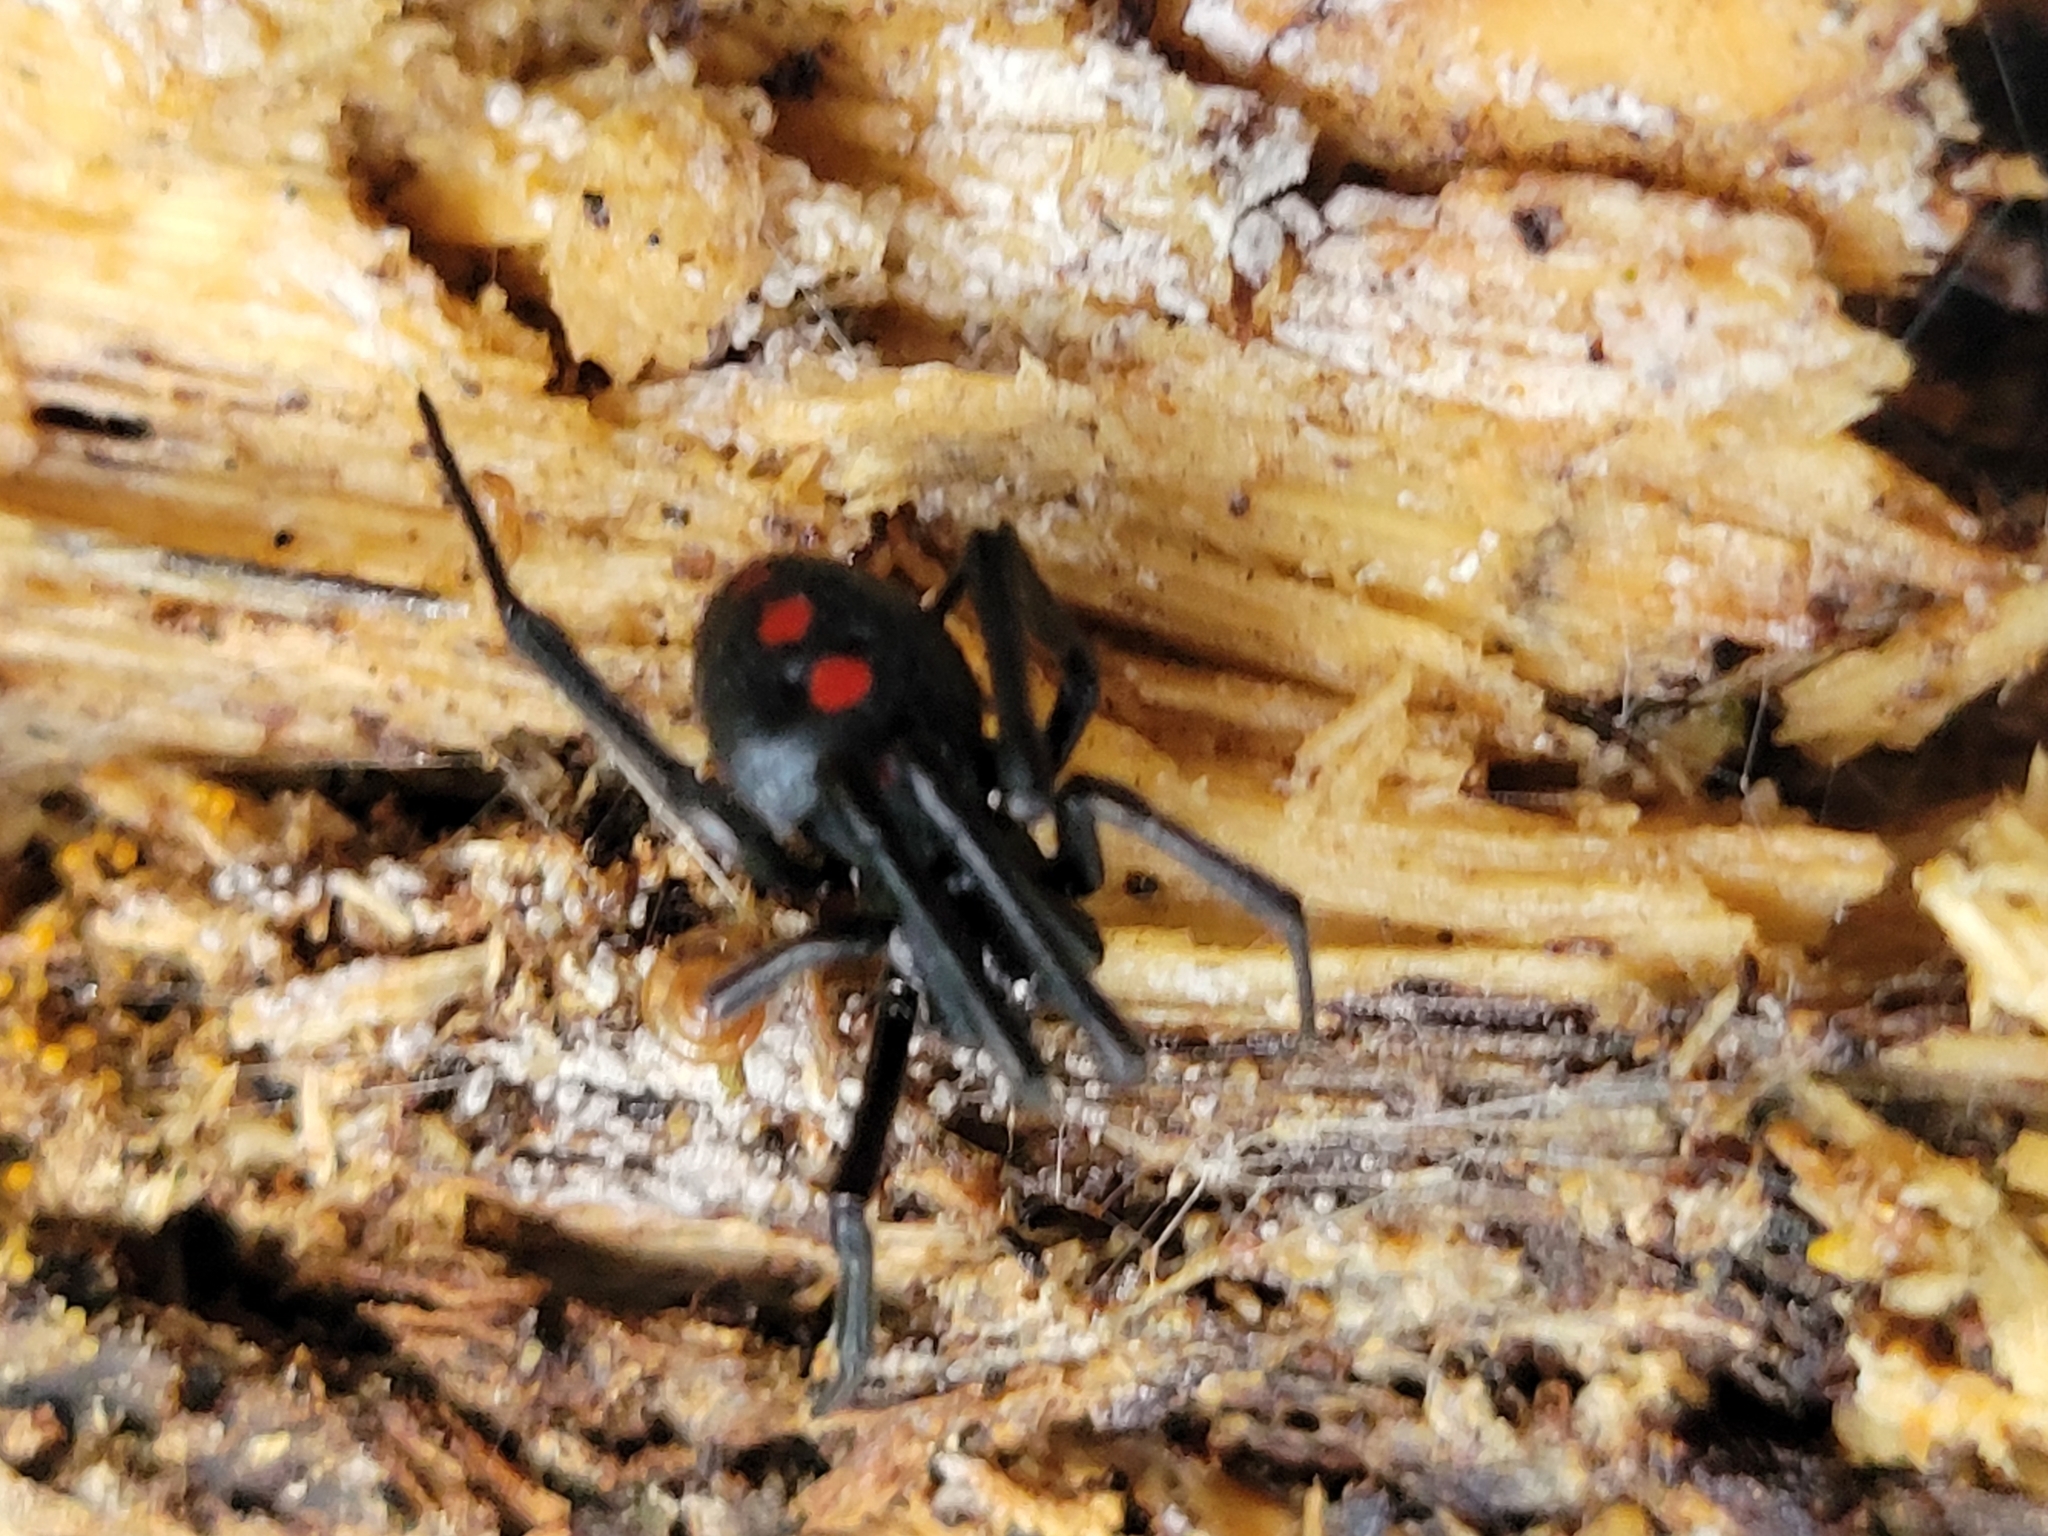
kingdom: Animalia
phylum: Arthropoda
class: Arachnida
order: Araneae
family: Theridiidae
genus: Latrodectus
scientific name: Latrodectus variolus
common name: Northern black widow
